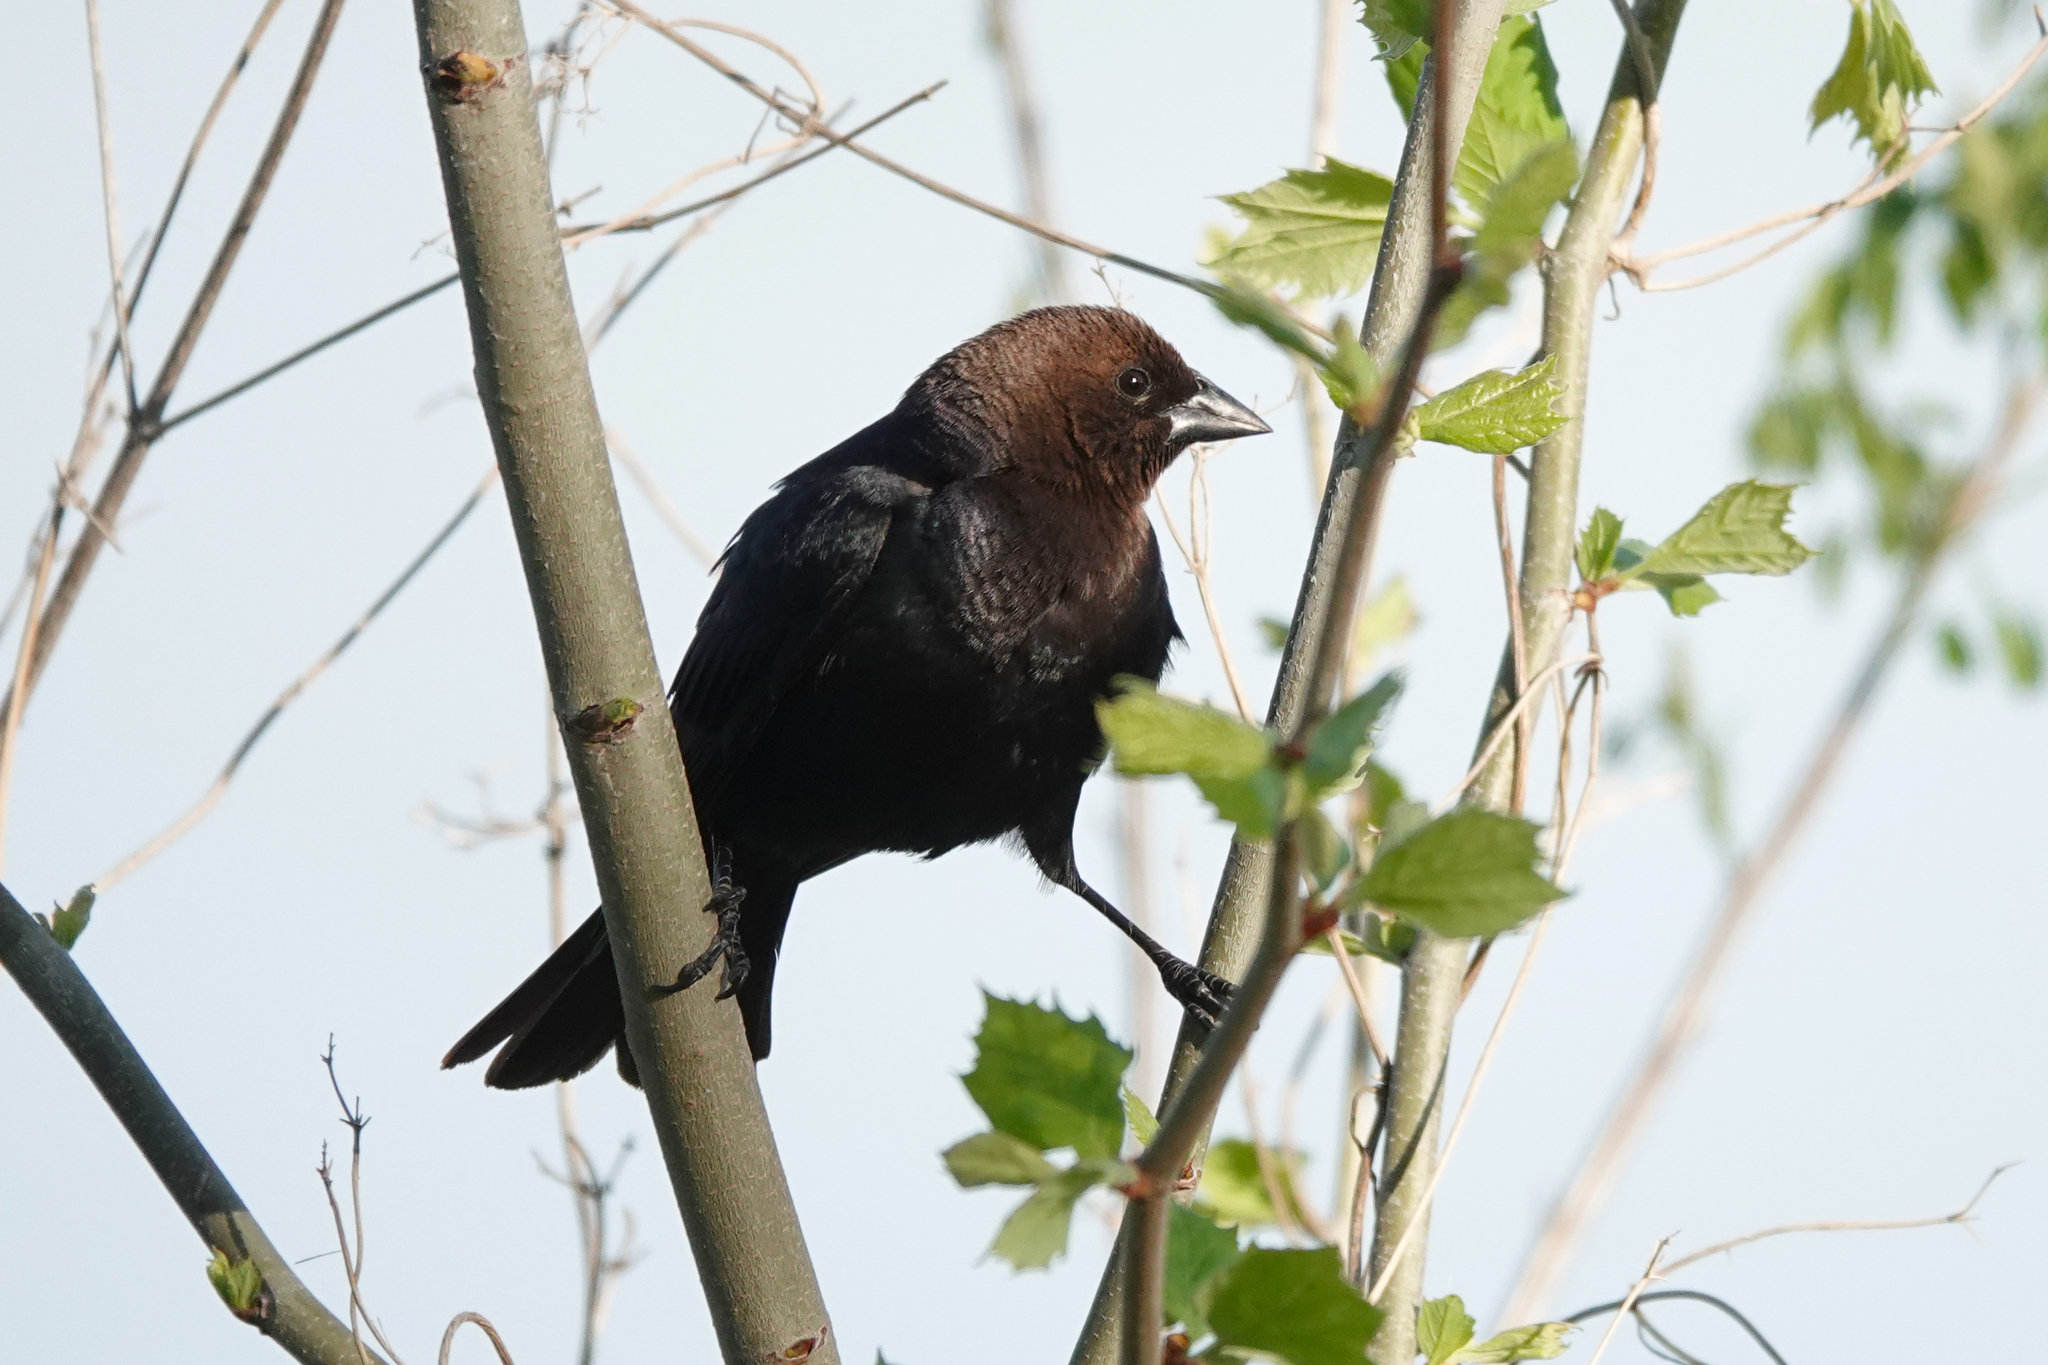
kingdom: Animalia
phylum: Chordata
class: Aves
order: Passeriformes
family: Icteridae
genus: Molothrus
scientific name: Molothrus ater
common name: Brown-headed cowbird
